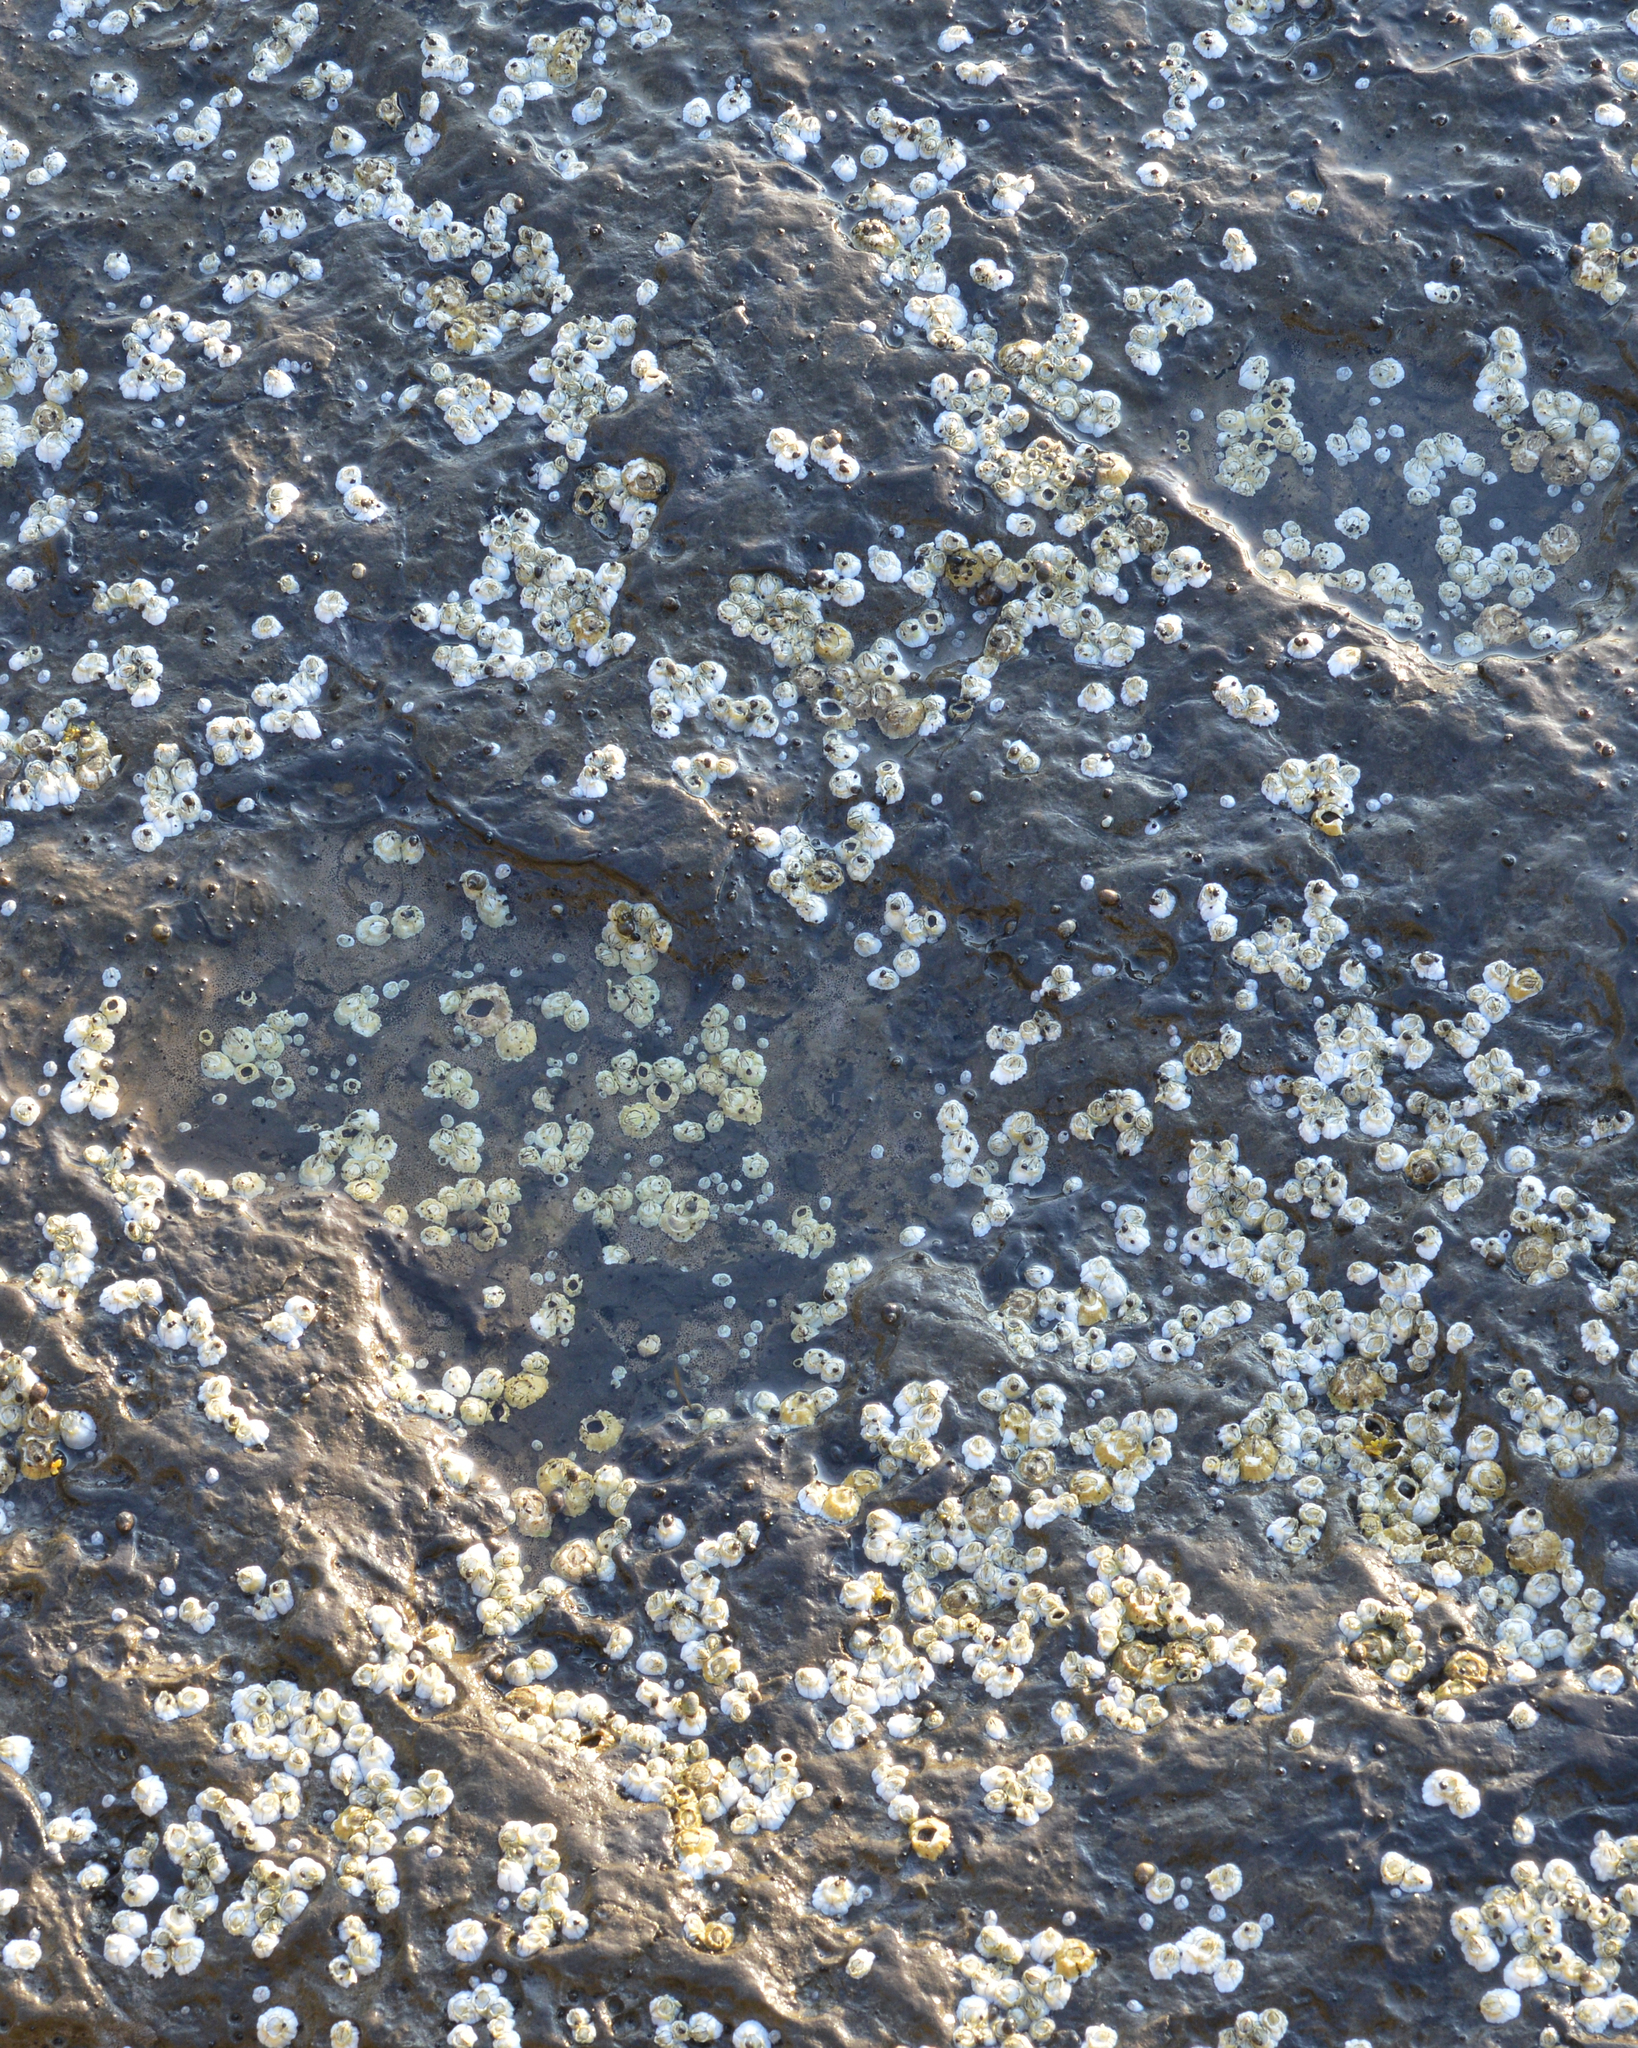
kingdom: Animalia
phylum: Arthropoda
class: Maxillopoda
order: Sessilia
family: Archaeobalanidae
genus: Semibalanus
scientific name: Semibalanus balanoides
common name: Acorn barnacle
